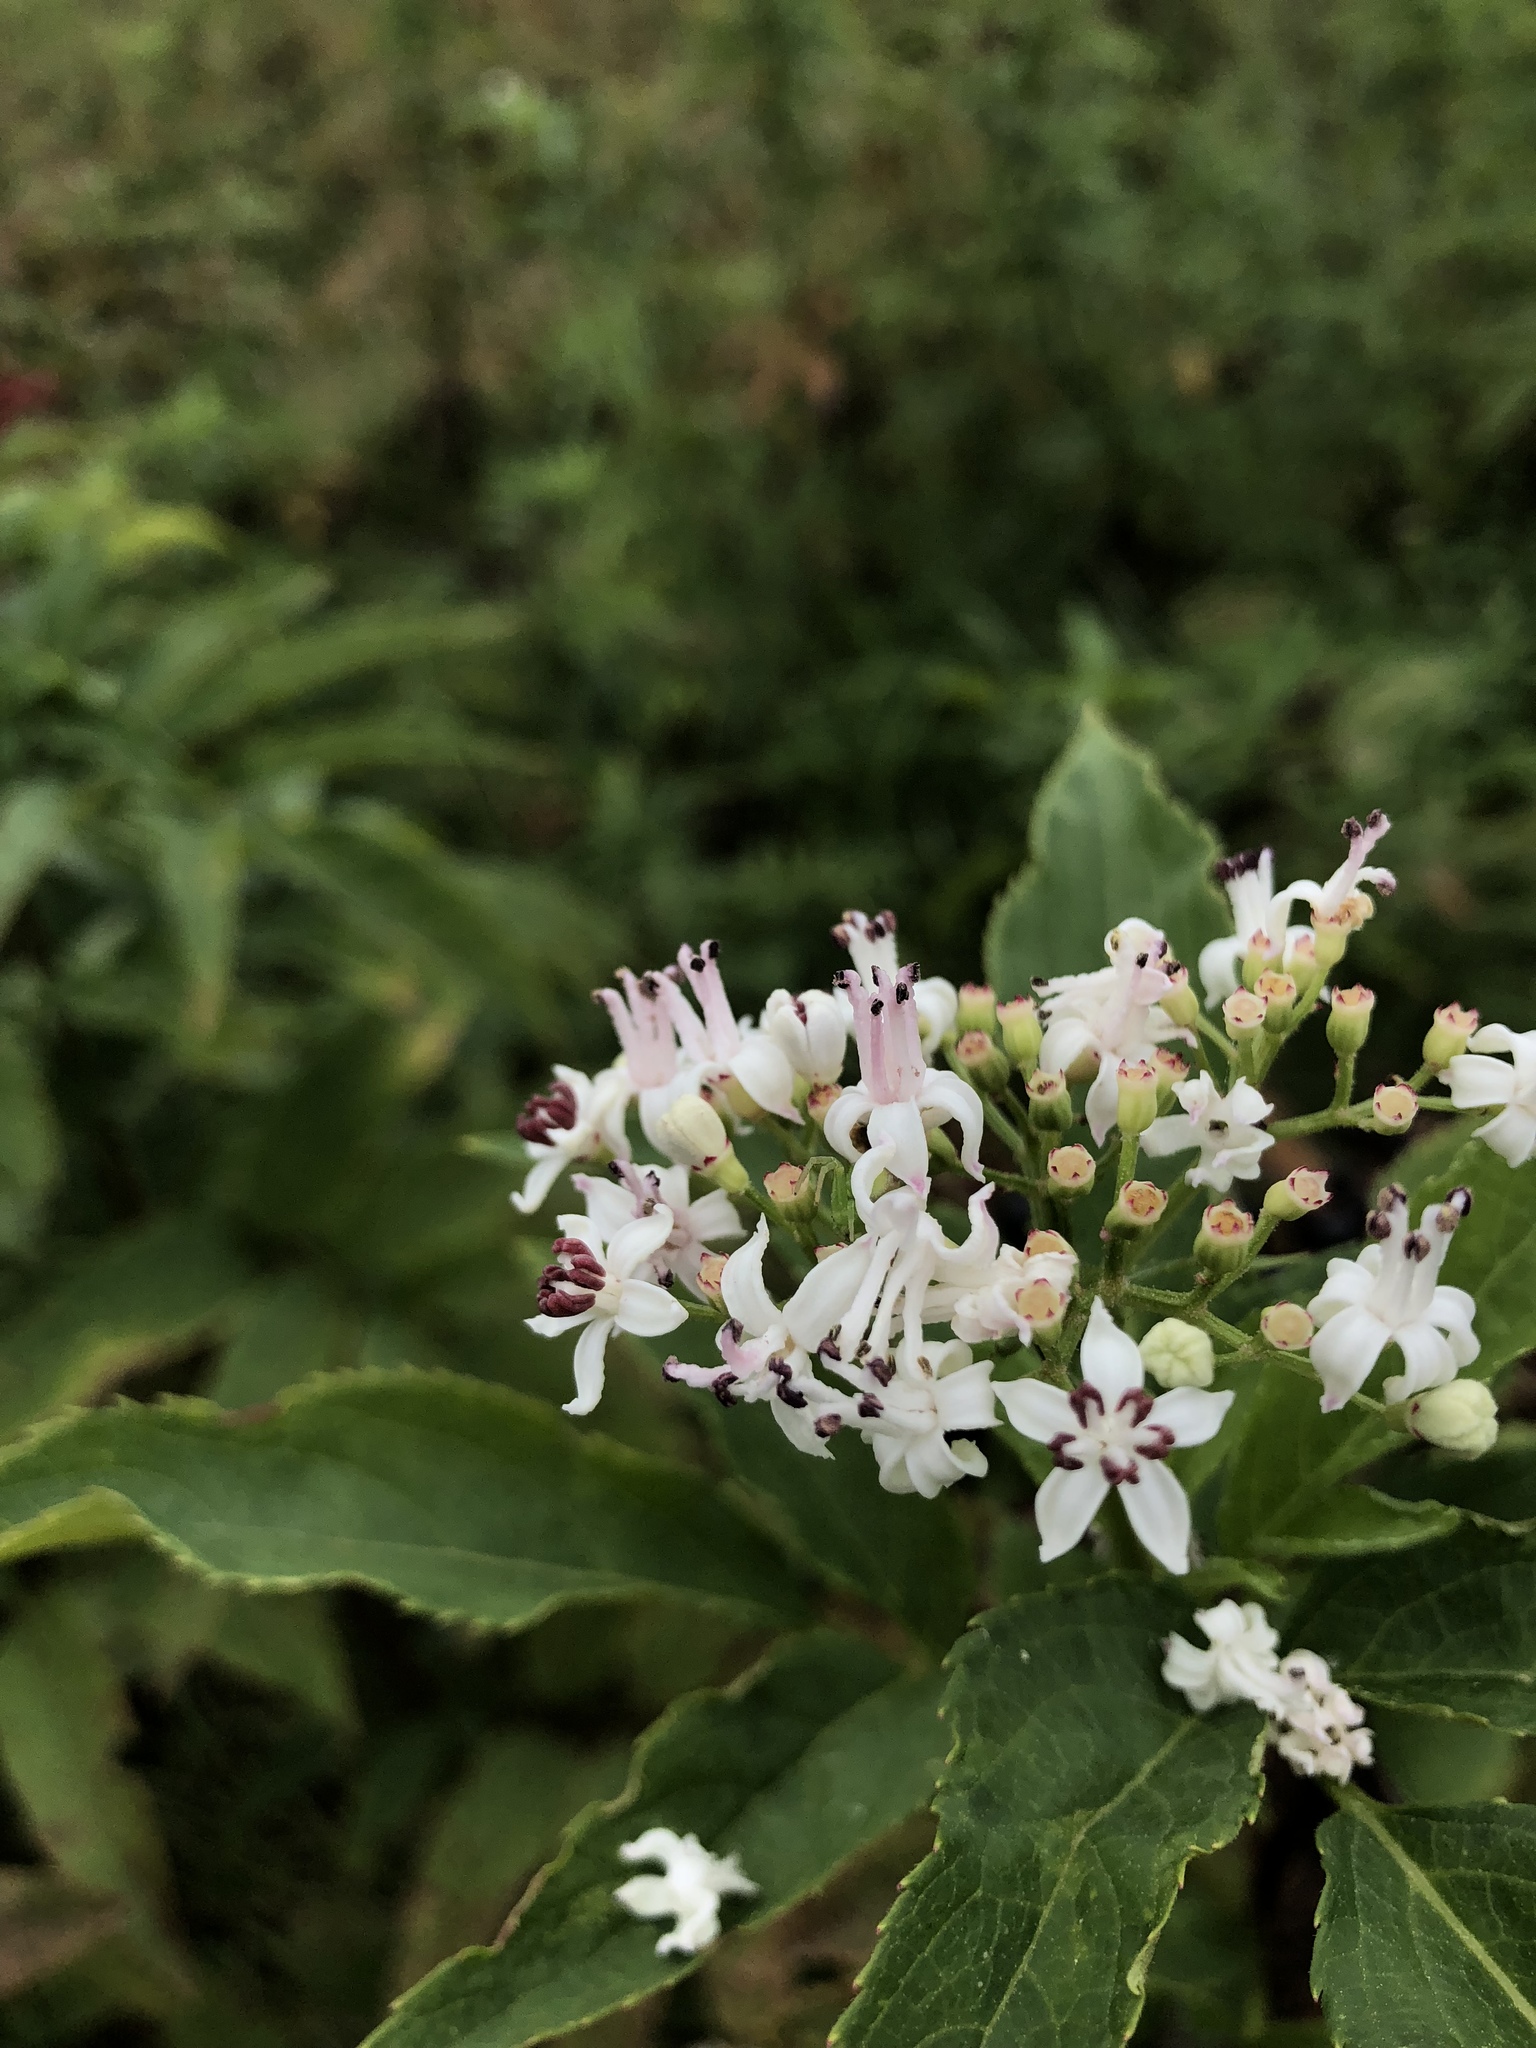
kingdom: Plantae
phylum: Tracheophyta
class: Magnoliopsida
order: Dipsacales
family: Viburnaceae
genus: Sambucus
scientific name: Sambucus ebulus
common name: Dwarf elder
